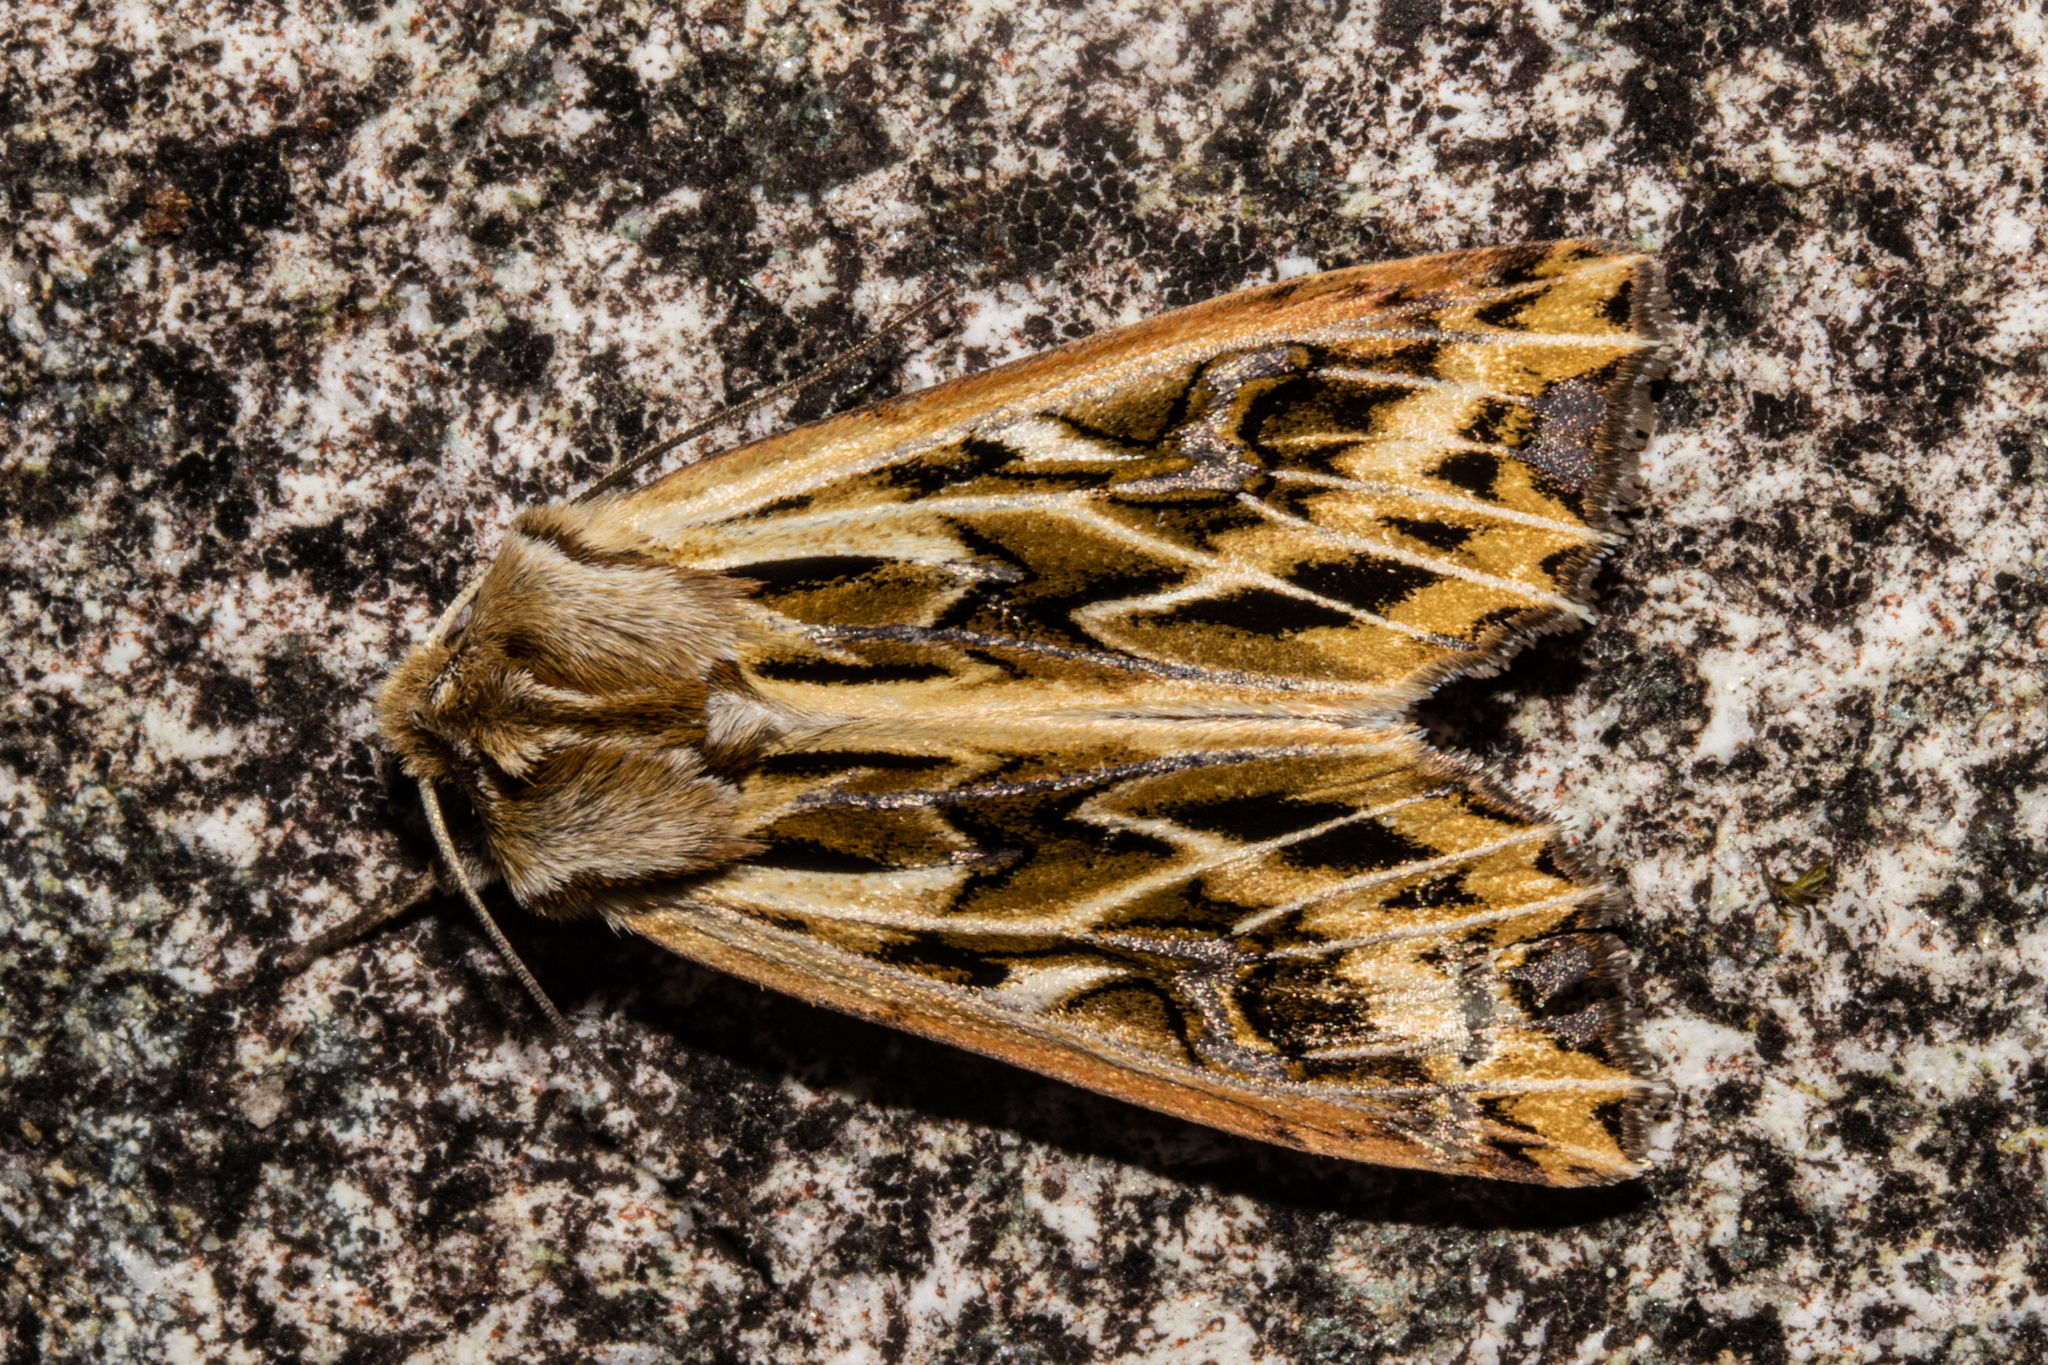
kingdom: Animalia
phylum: Arthropoda
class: Insecta
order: Lepidoptera
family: Noctuidae
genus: Ichneutica
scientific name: Ichneutica
